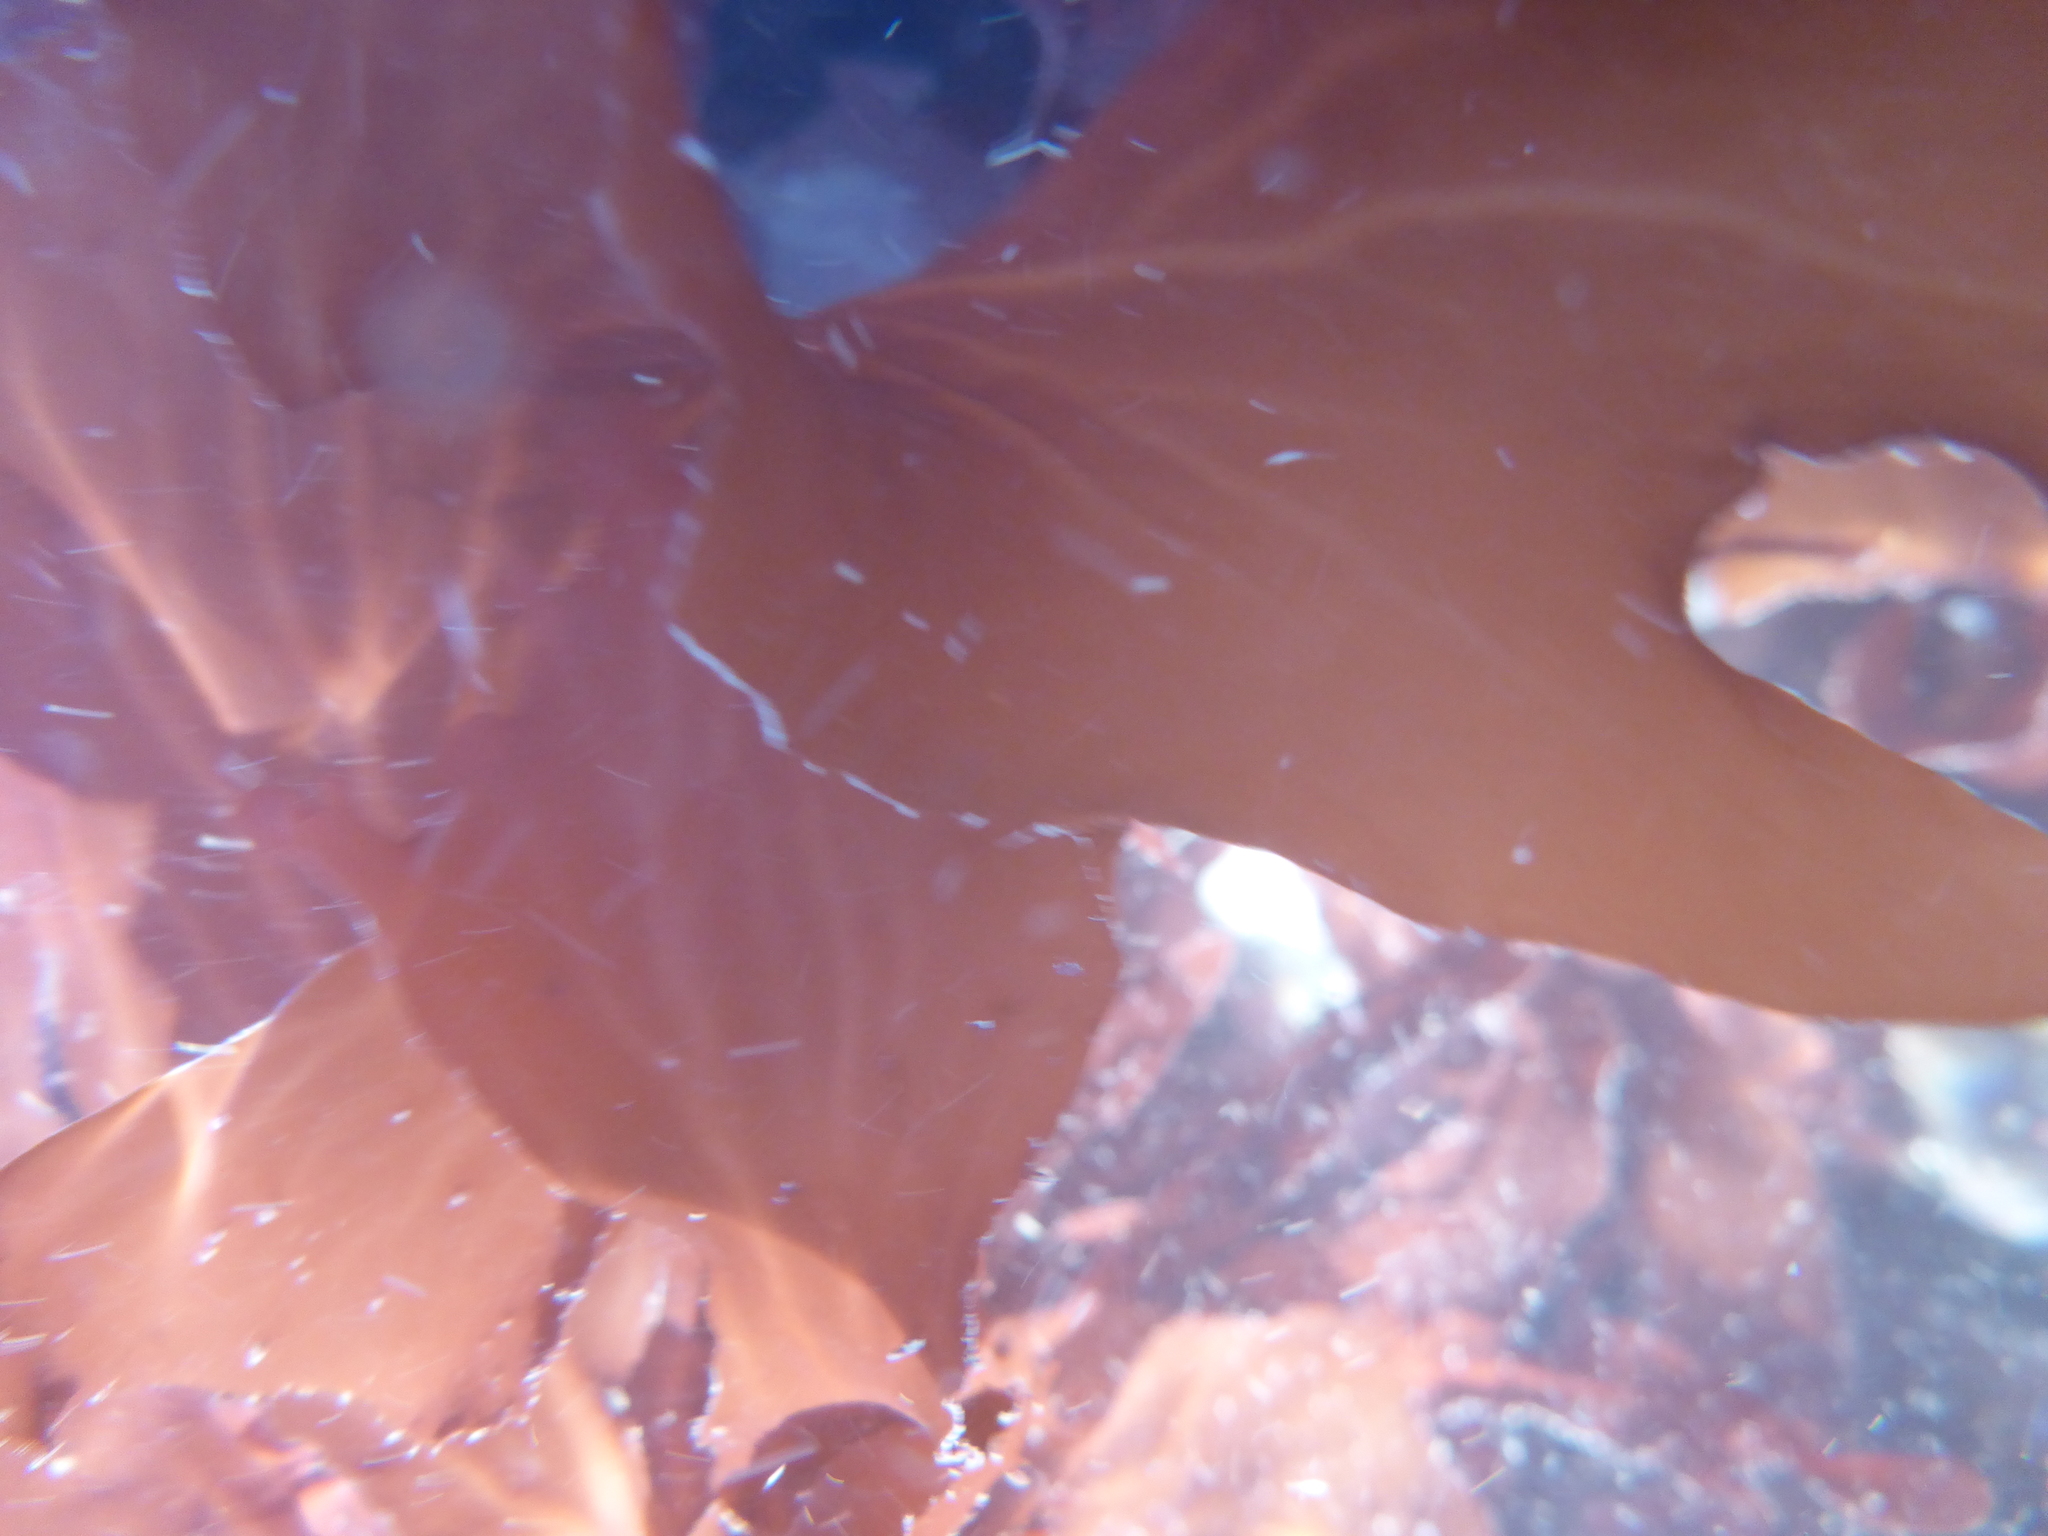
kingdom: Plantae
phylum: Rhodophyta
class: Florideophyceae
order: Gigartinales
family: Kallymeniaceae
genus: Erythrophyllum
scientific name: Erythrophyllum delesserioides
